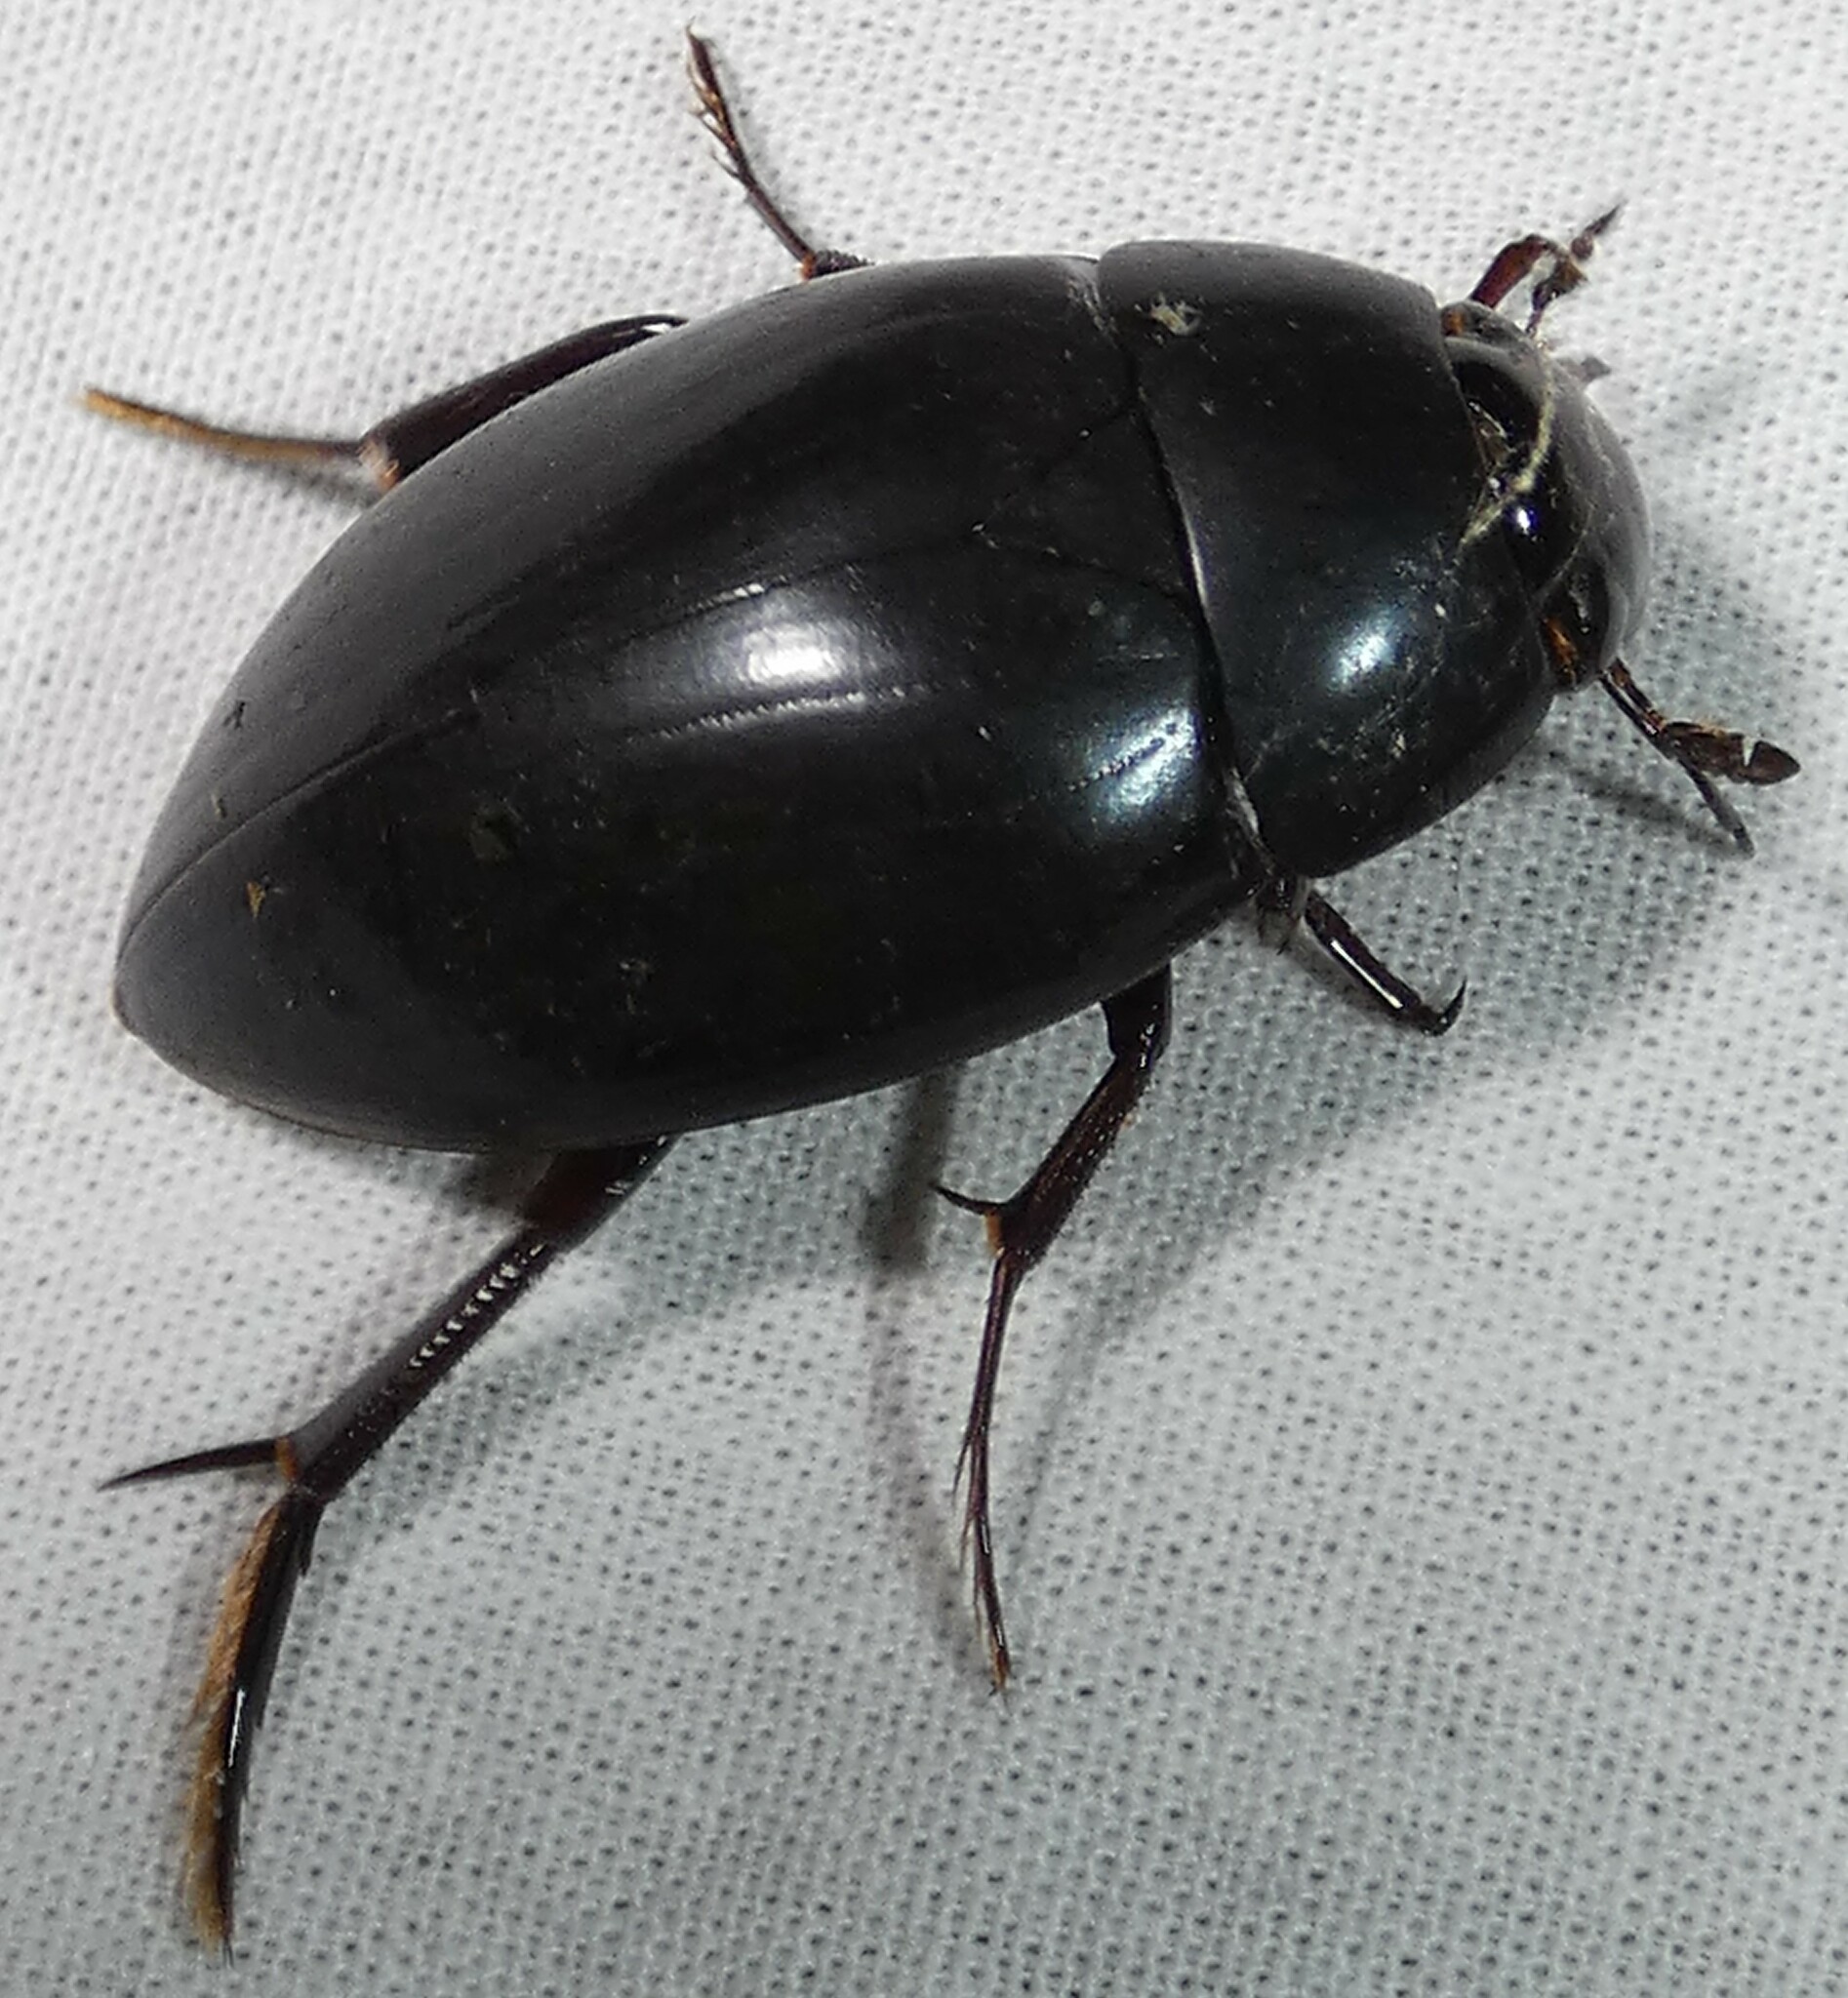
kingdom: Animalia
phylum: Arthropoda
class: Insecta
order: Coleoptera
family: Hydrophilidae
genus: Hydrophilus
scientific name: Hydrophilus ovatus
